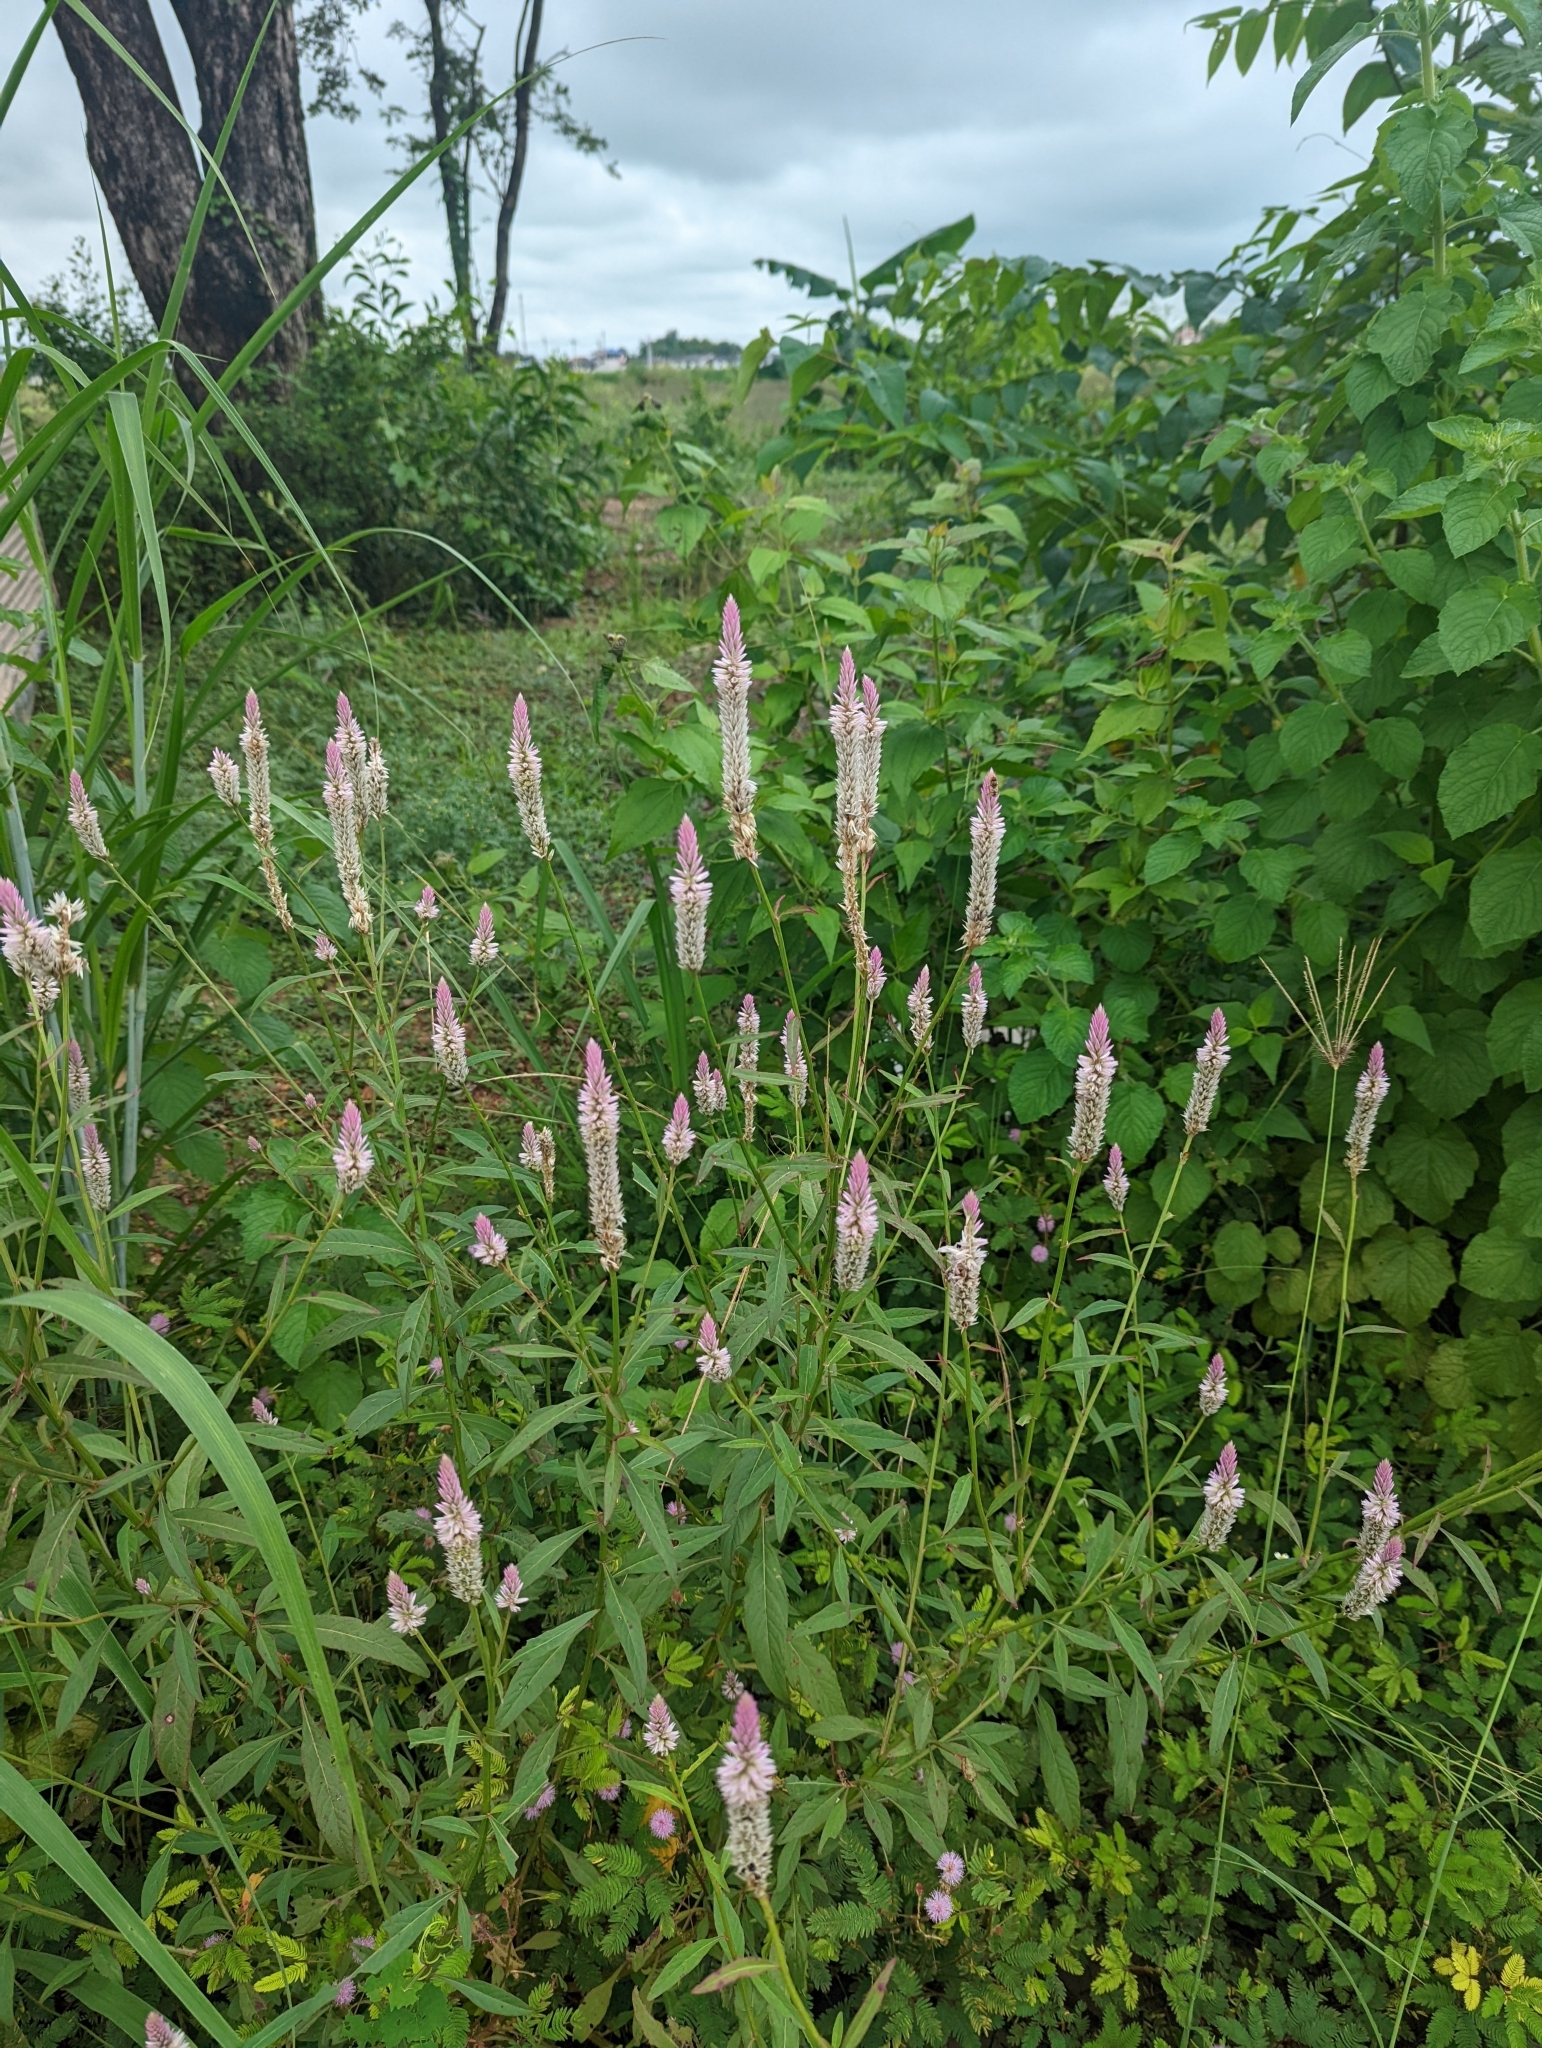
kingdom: Plantae
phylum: Tracheophyta
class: Magnoliopsida
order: Caryophyllales
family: Amaranthaceae
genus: Celosia
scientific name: Celosia argentea
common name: Feather cockscomb
